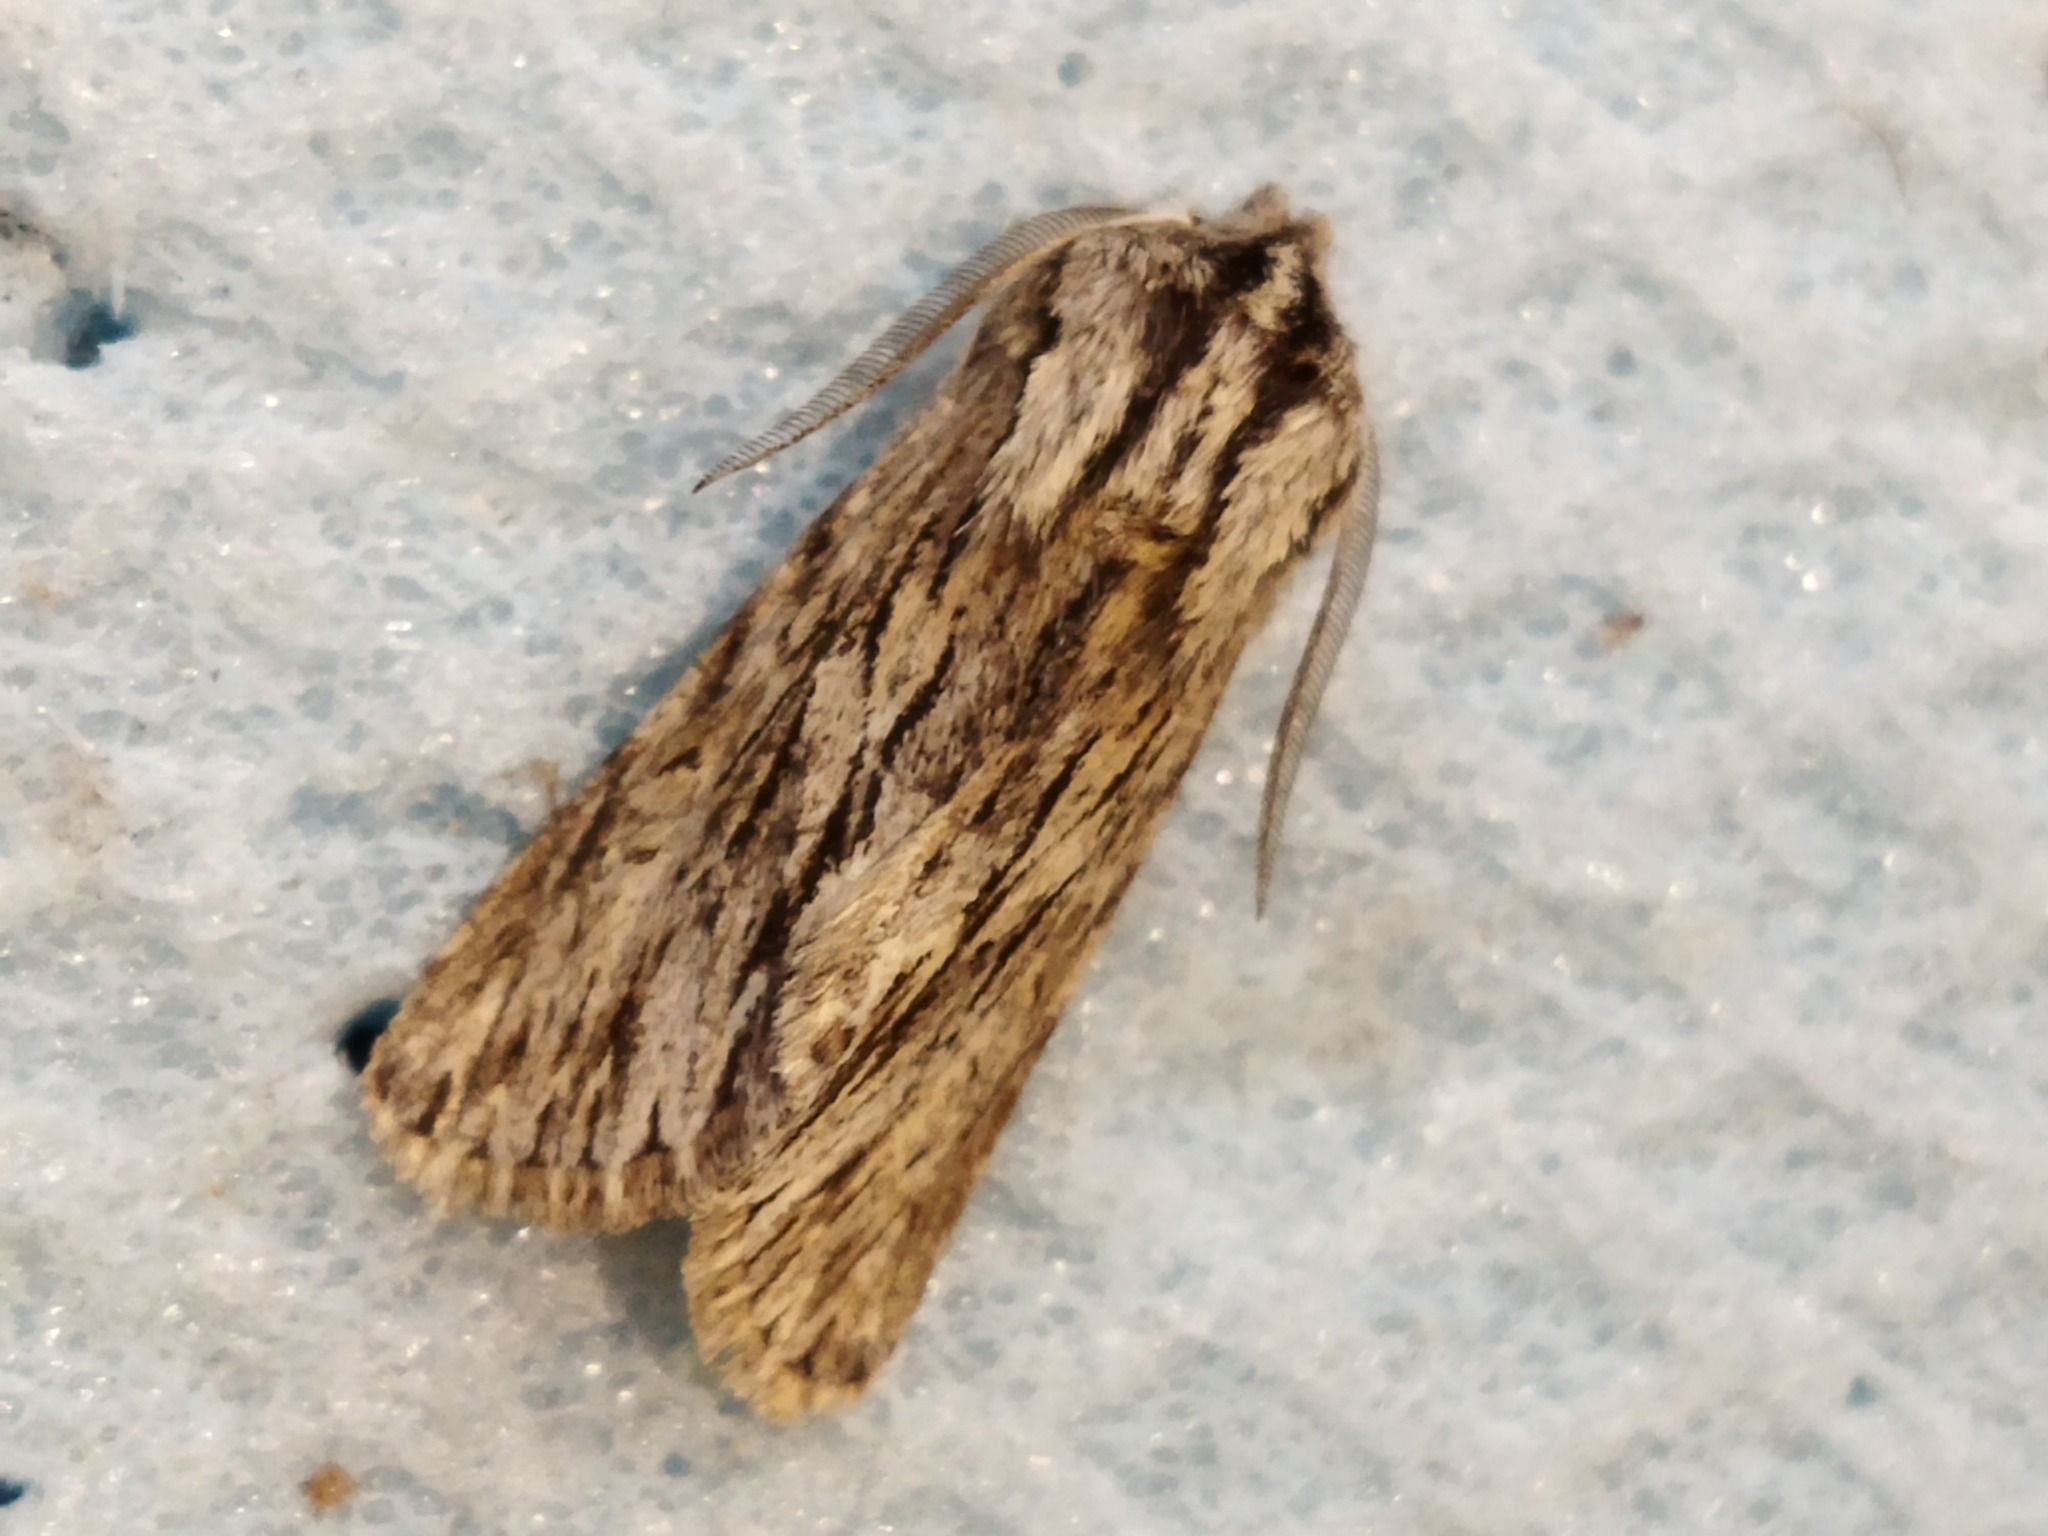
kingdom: Animalia
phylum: Arthropoda
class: Insecta
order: Lepidoptera
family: Noctuidae
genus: Asteroscopus
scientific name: Asteroscopus sphinx
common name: The sprawler
